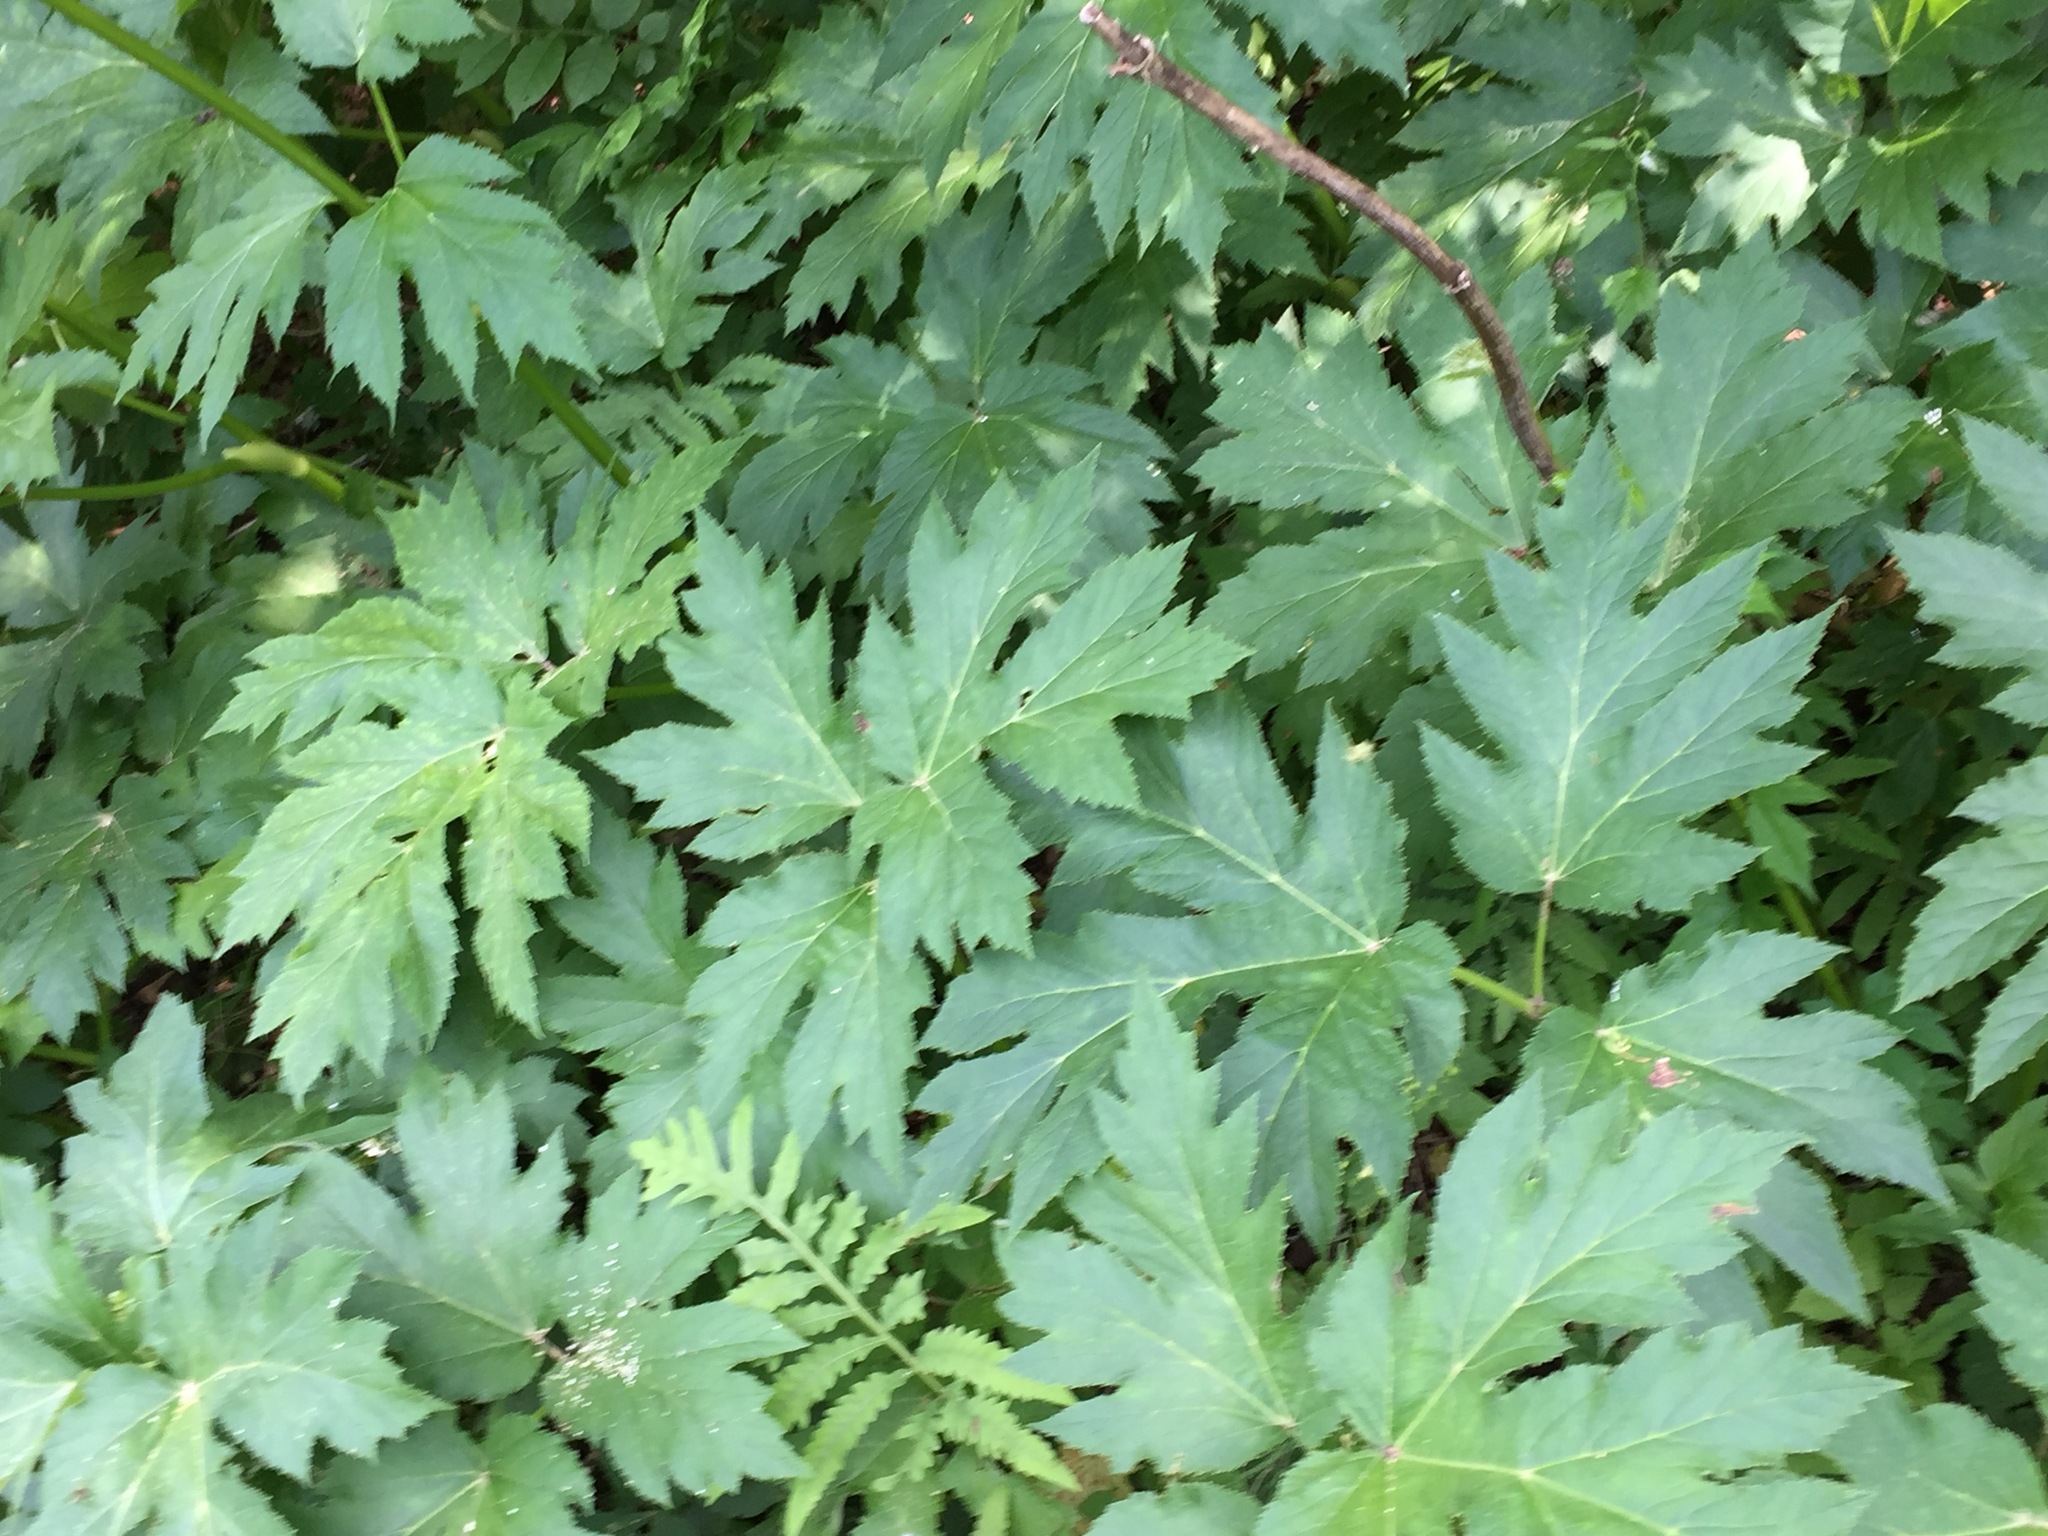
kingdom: Plantae
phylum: Tracheophyta
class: Magnoliopsida
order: Apiales
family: Apiaceae
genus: Heracleum
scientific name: Heracleum maximum
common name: American cow parsnip
